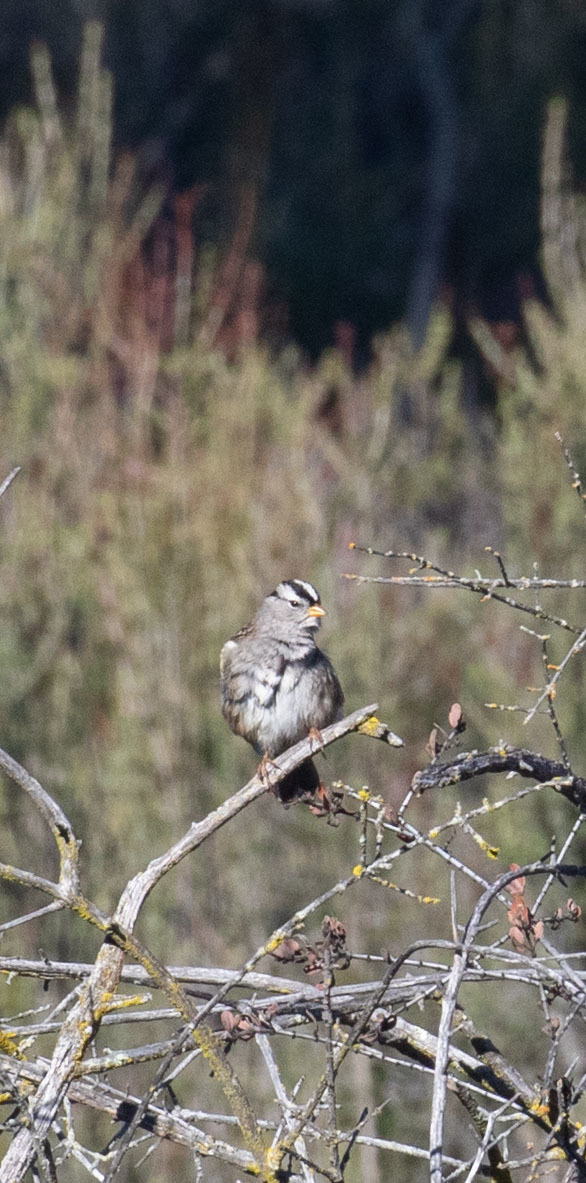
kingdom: Animalia
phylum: Chordata
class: Aves
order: Passeriformes
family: Passerellidae
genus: Zonotrichia
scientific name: Zonotrichia leucophrys
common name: White-crowned sparrow
